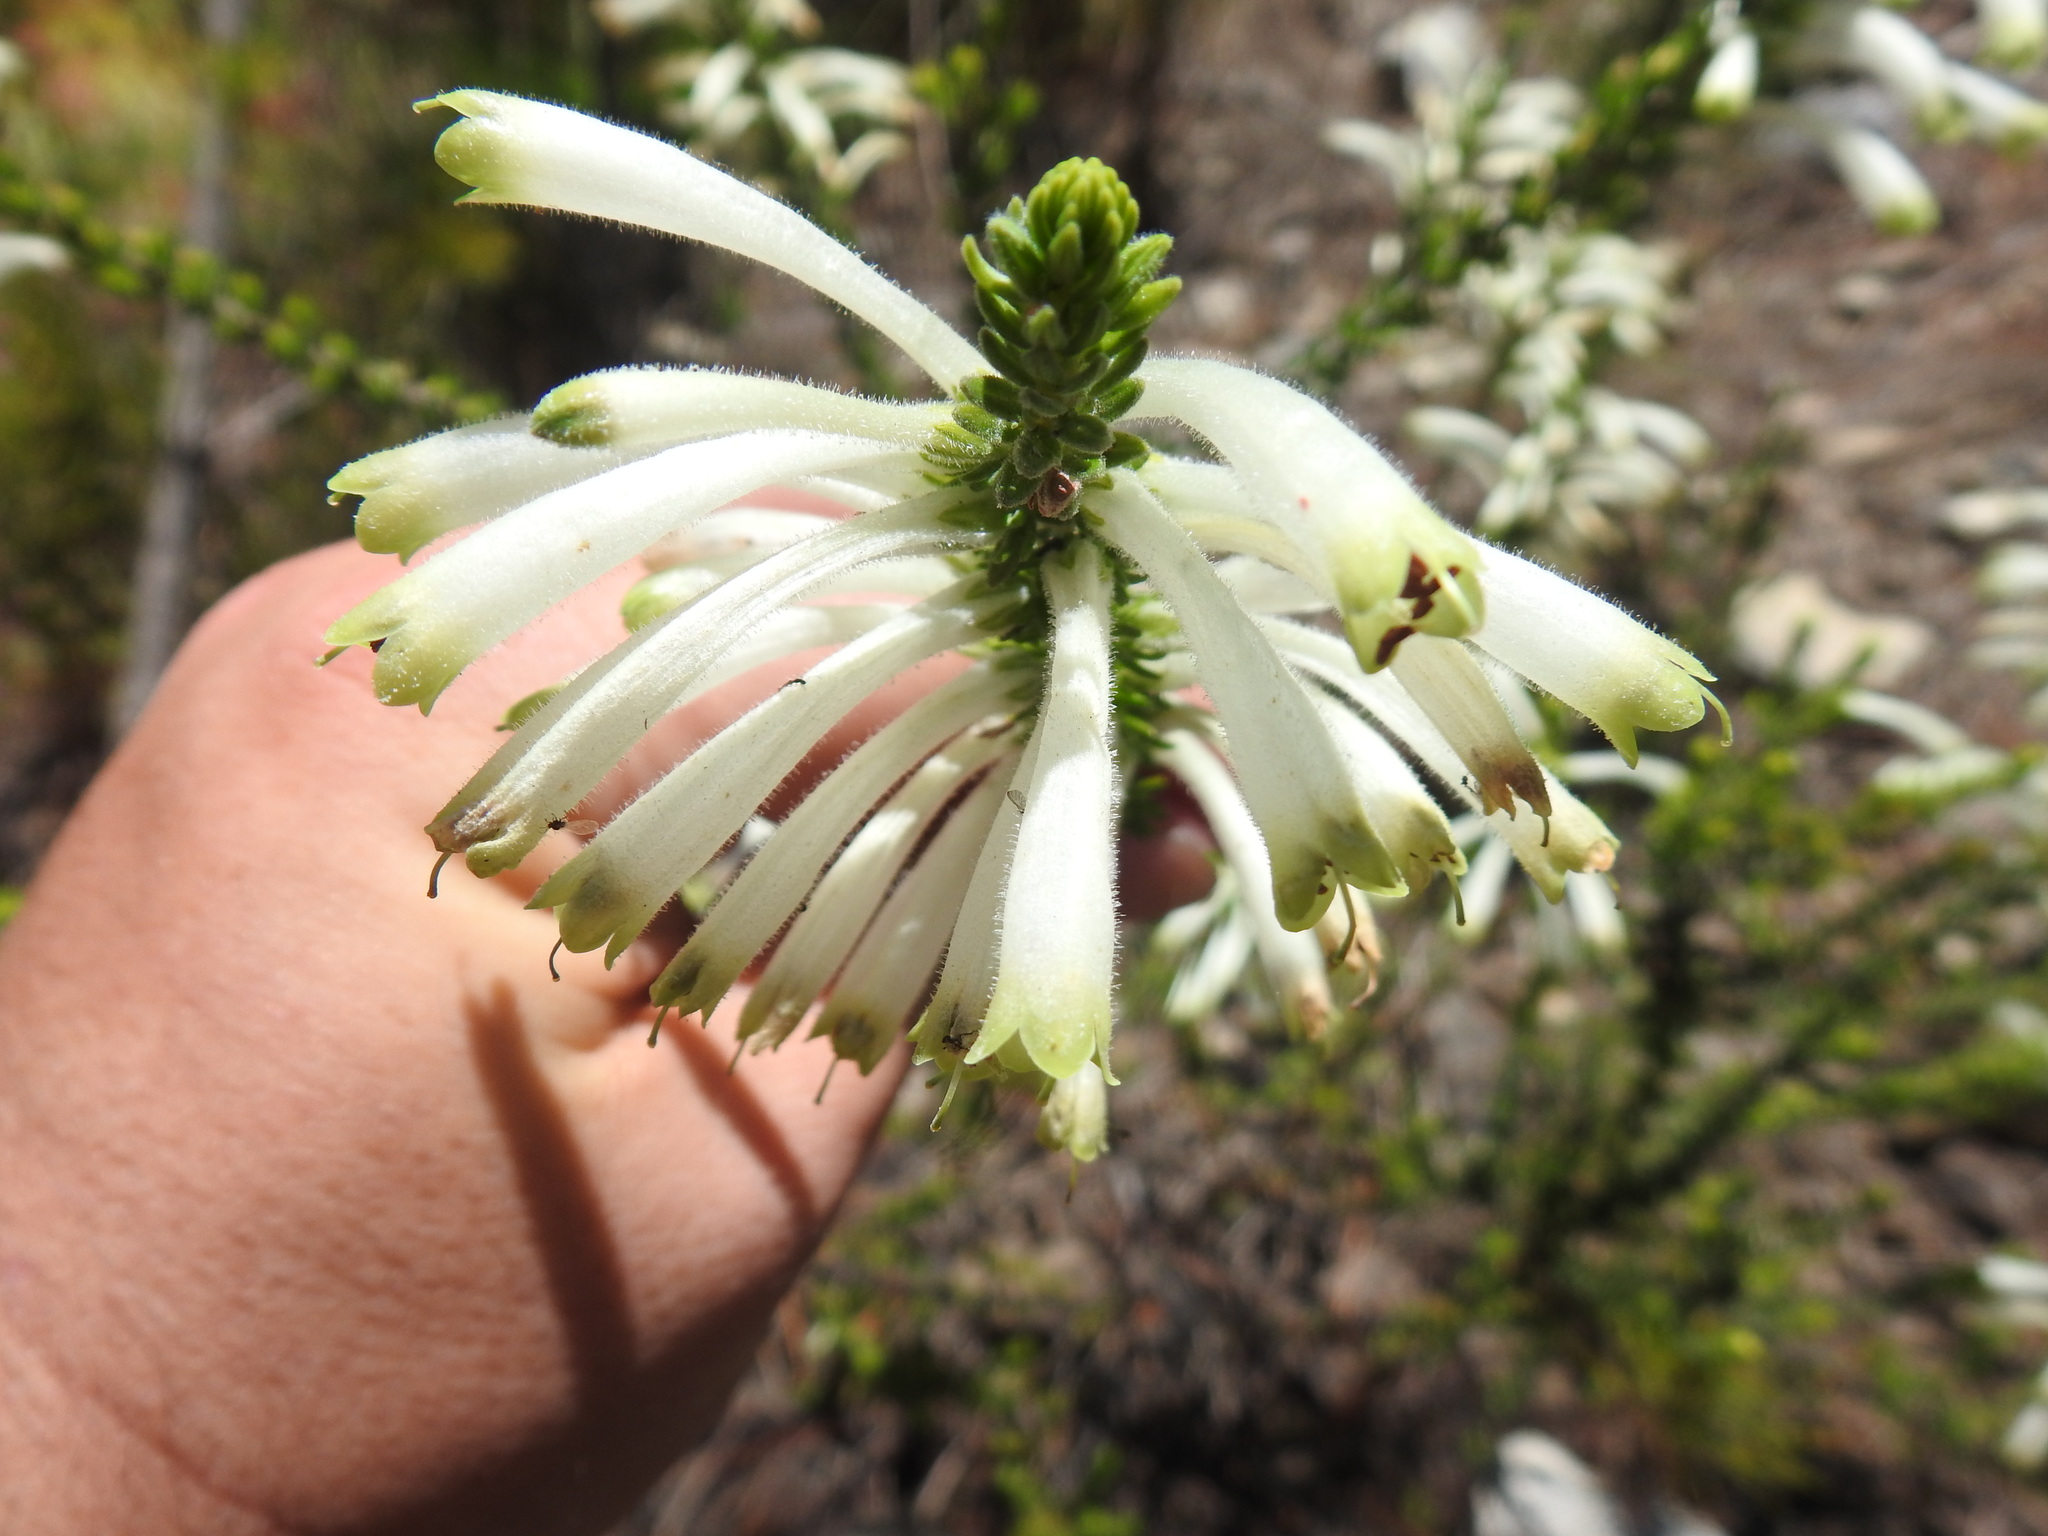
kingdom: Plantae
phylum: Tracheophyta
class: Magnoliopsida
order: Ericales
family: Ericaceae
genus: Erica
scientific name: Erica densifolia
